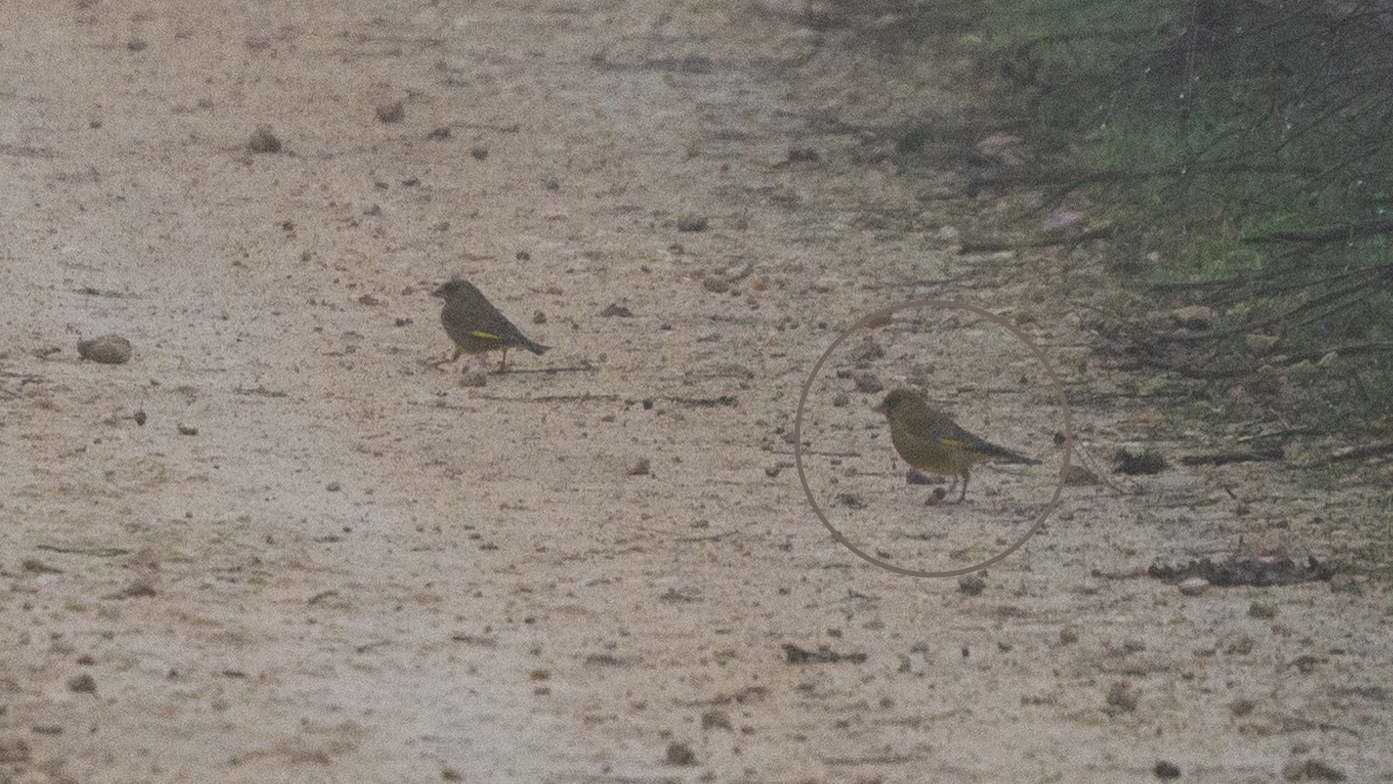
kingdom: Plantae
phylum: Tracheophyta
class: Liliopsida
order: Poales
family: Poaceae
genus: Chloris
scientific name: Chloris chloris
